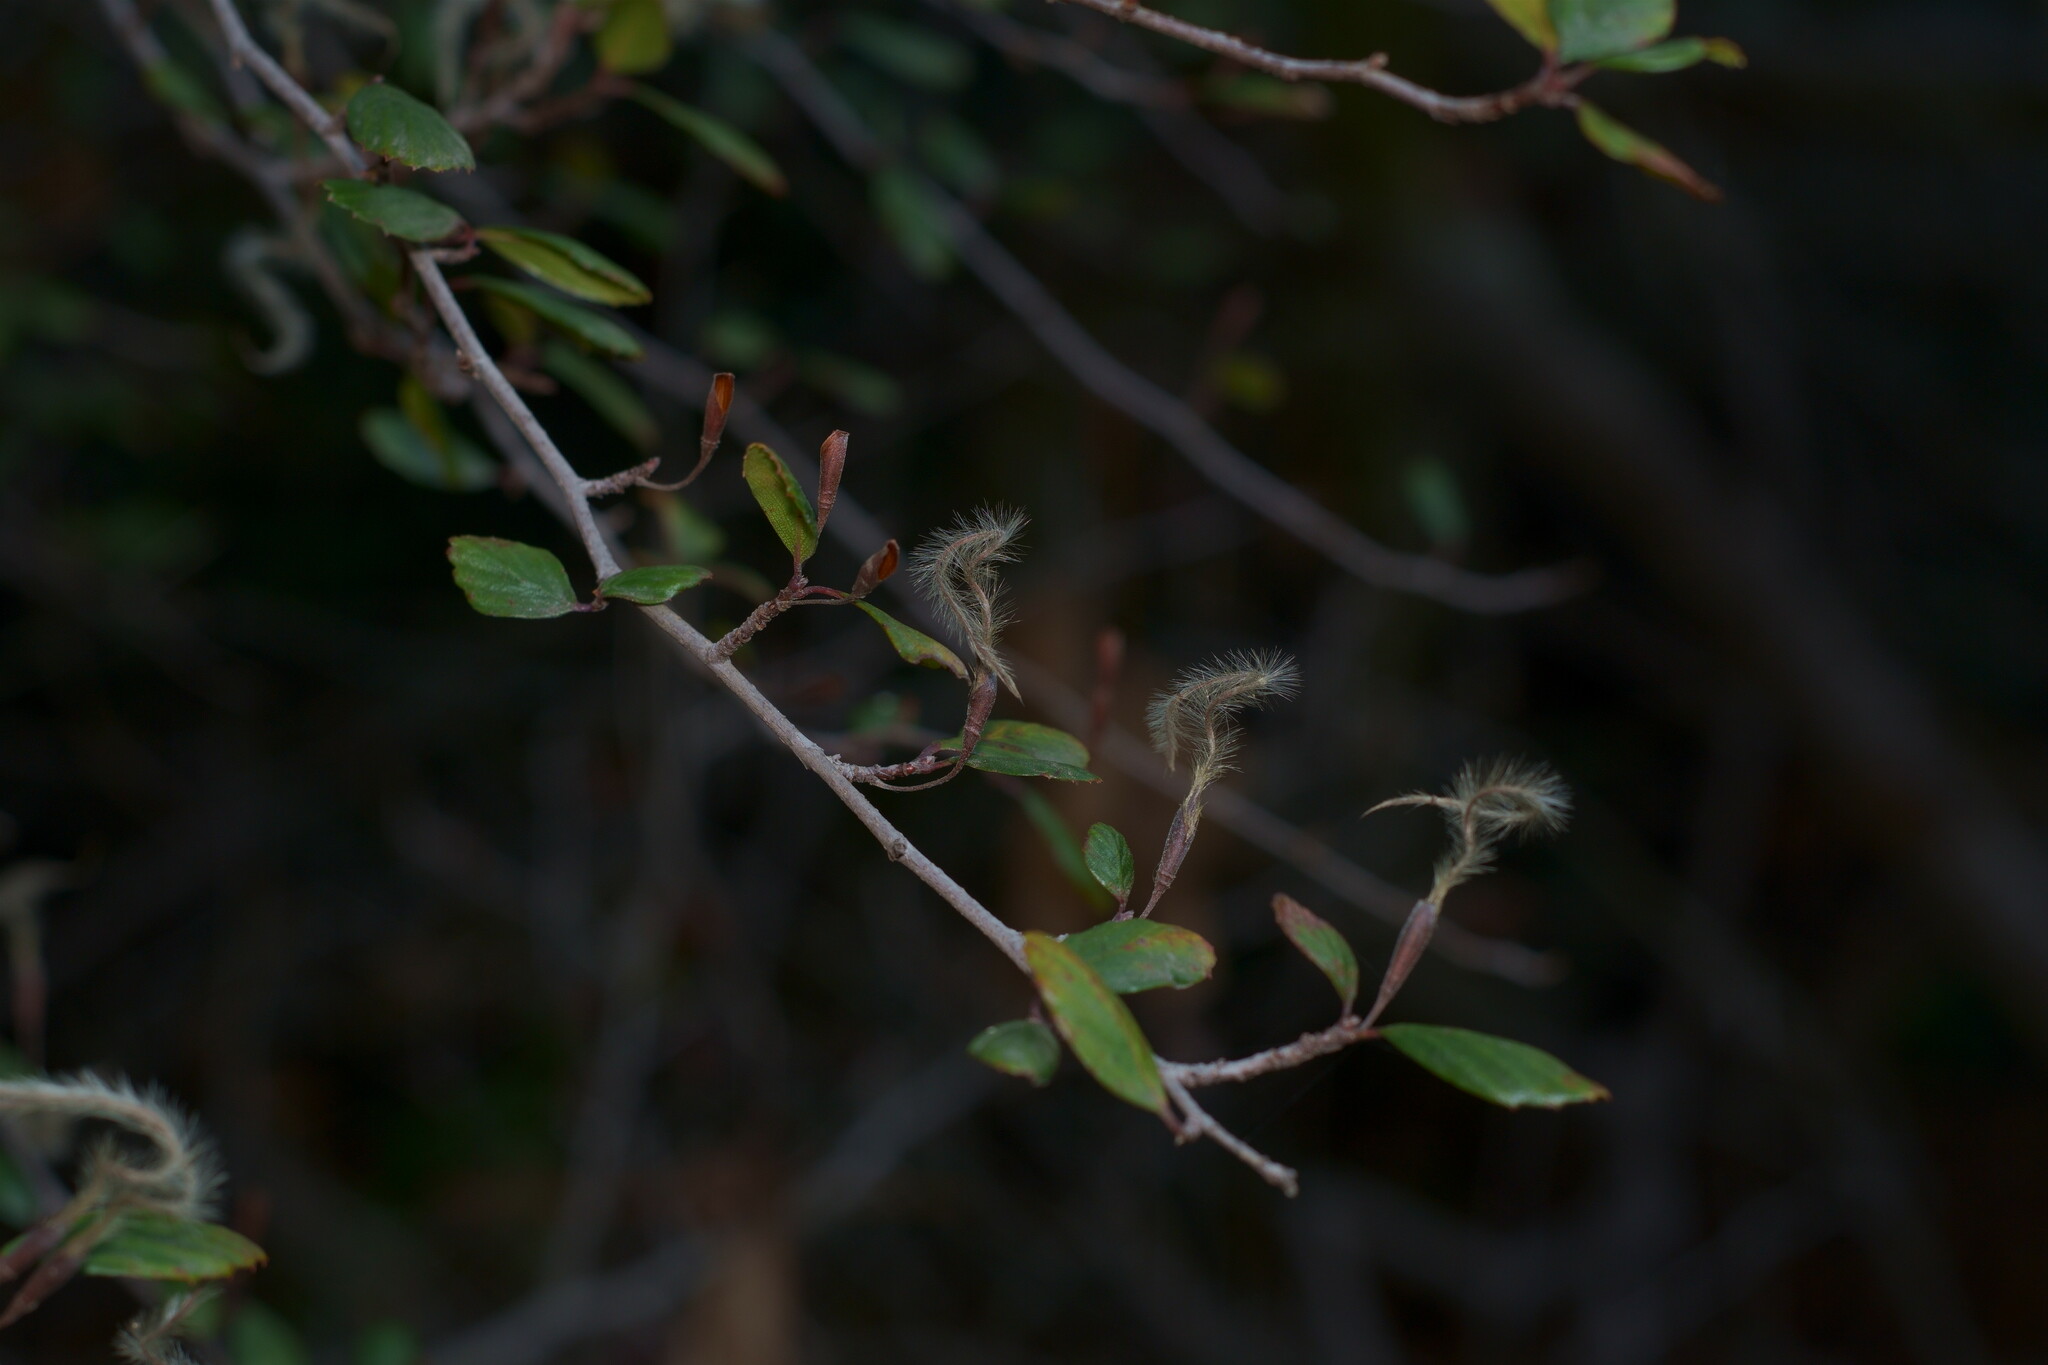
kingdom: Plantae
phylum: Tracheophyta
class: Magnoliopsida
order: Rosales
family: Rosaceae
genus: Cercocarpus
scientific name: Cercocarpus montanus
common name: Alder-leaf cercocarpus
